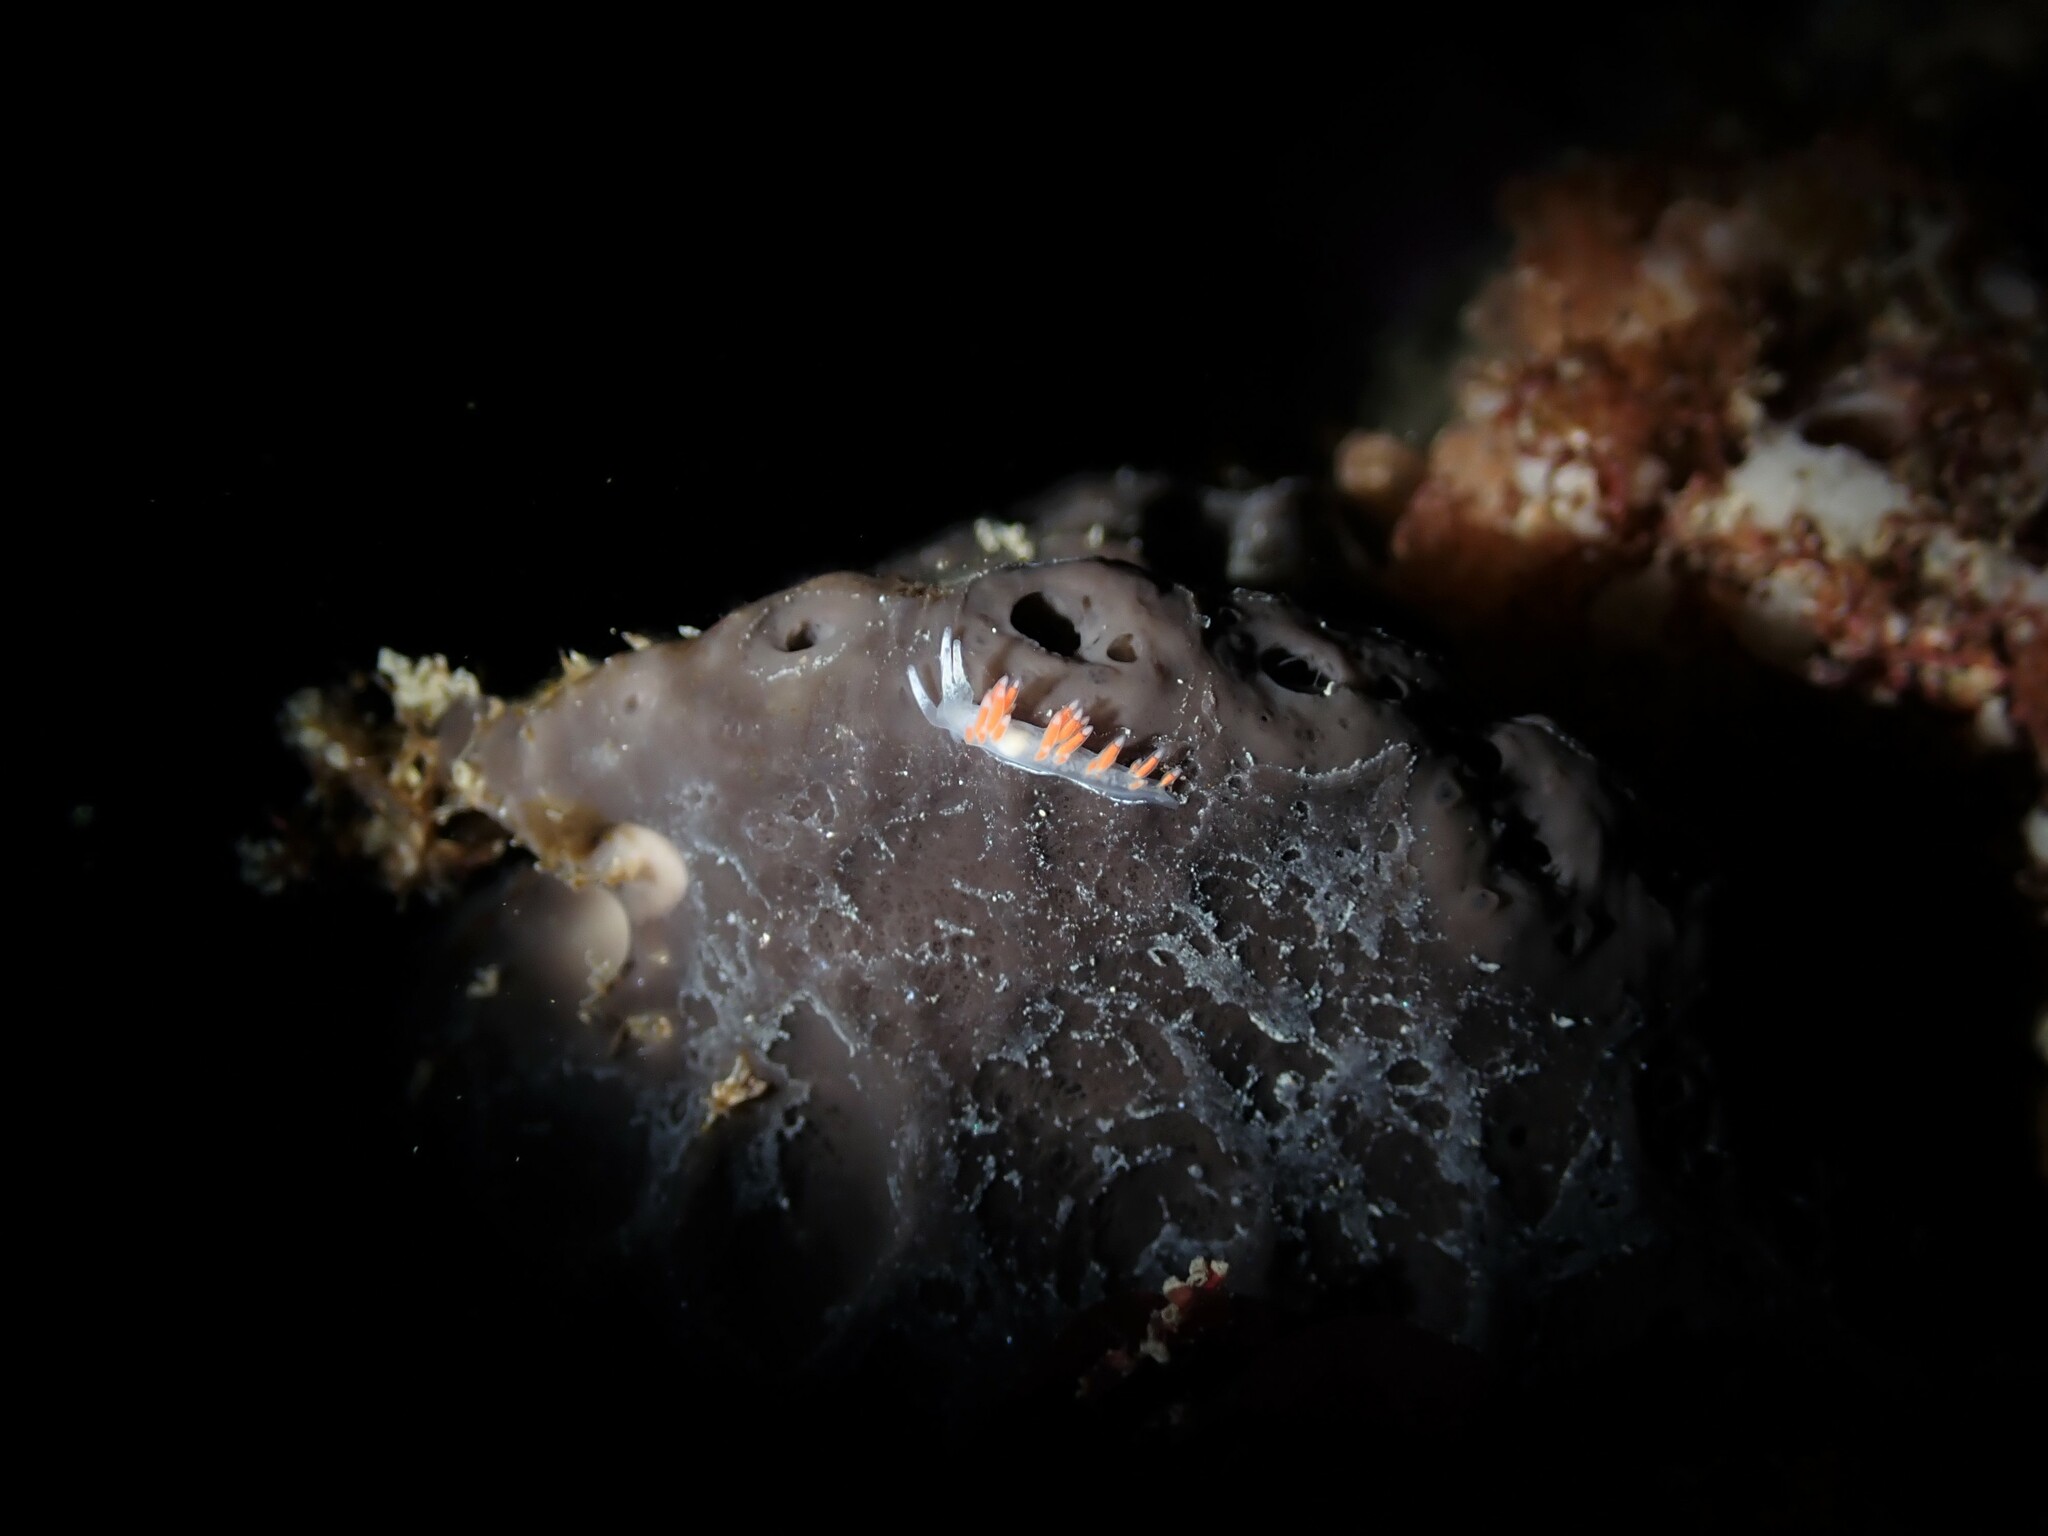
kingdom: Animalia
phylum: Mollusca
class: Gastropoda
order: Nudibranchia
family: Flabellinidae
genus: Coryphellina
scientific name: Coryphellina albomarginata
